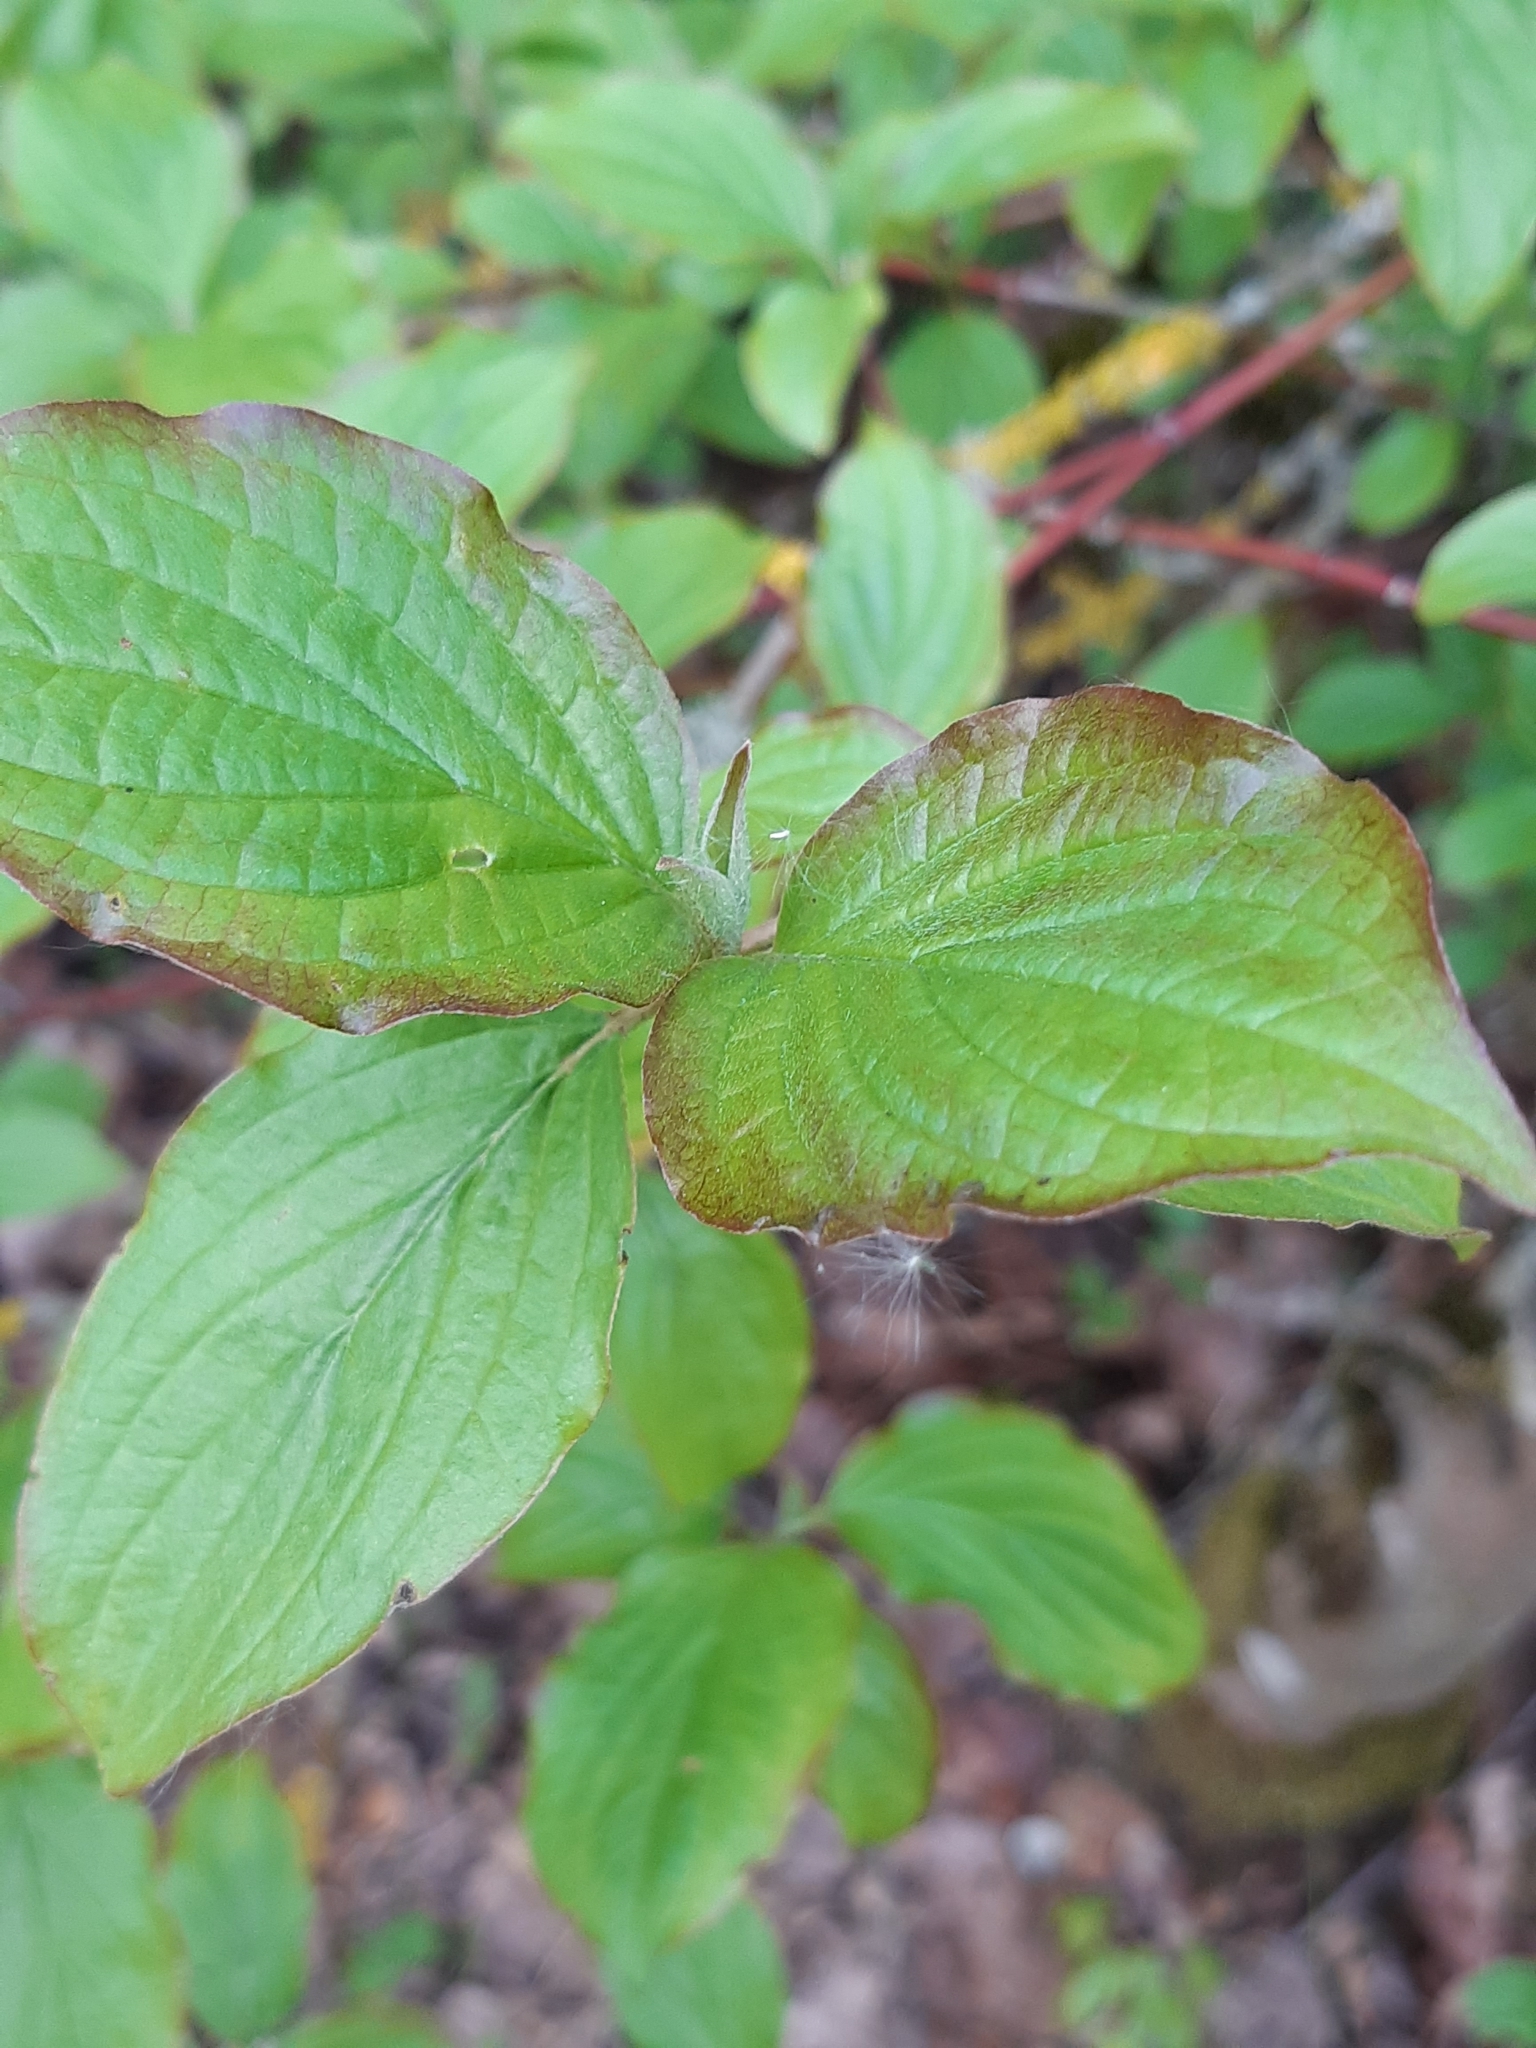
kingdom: Plantae
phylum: Tracheophyta
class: Magnoliopsida
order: Cornales
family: Cornaceae
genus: Cornus
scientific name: Cornus sanguinea
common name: Dogwood
